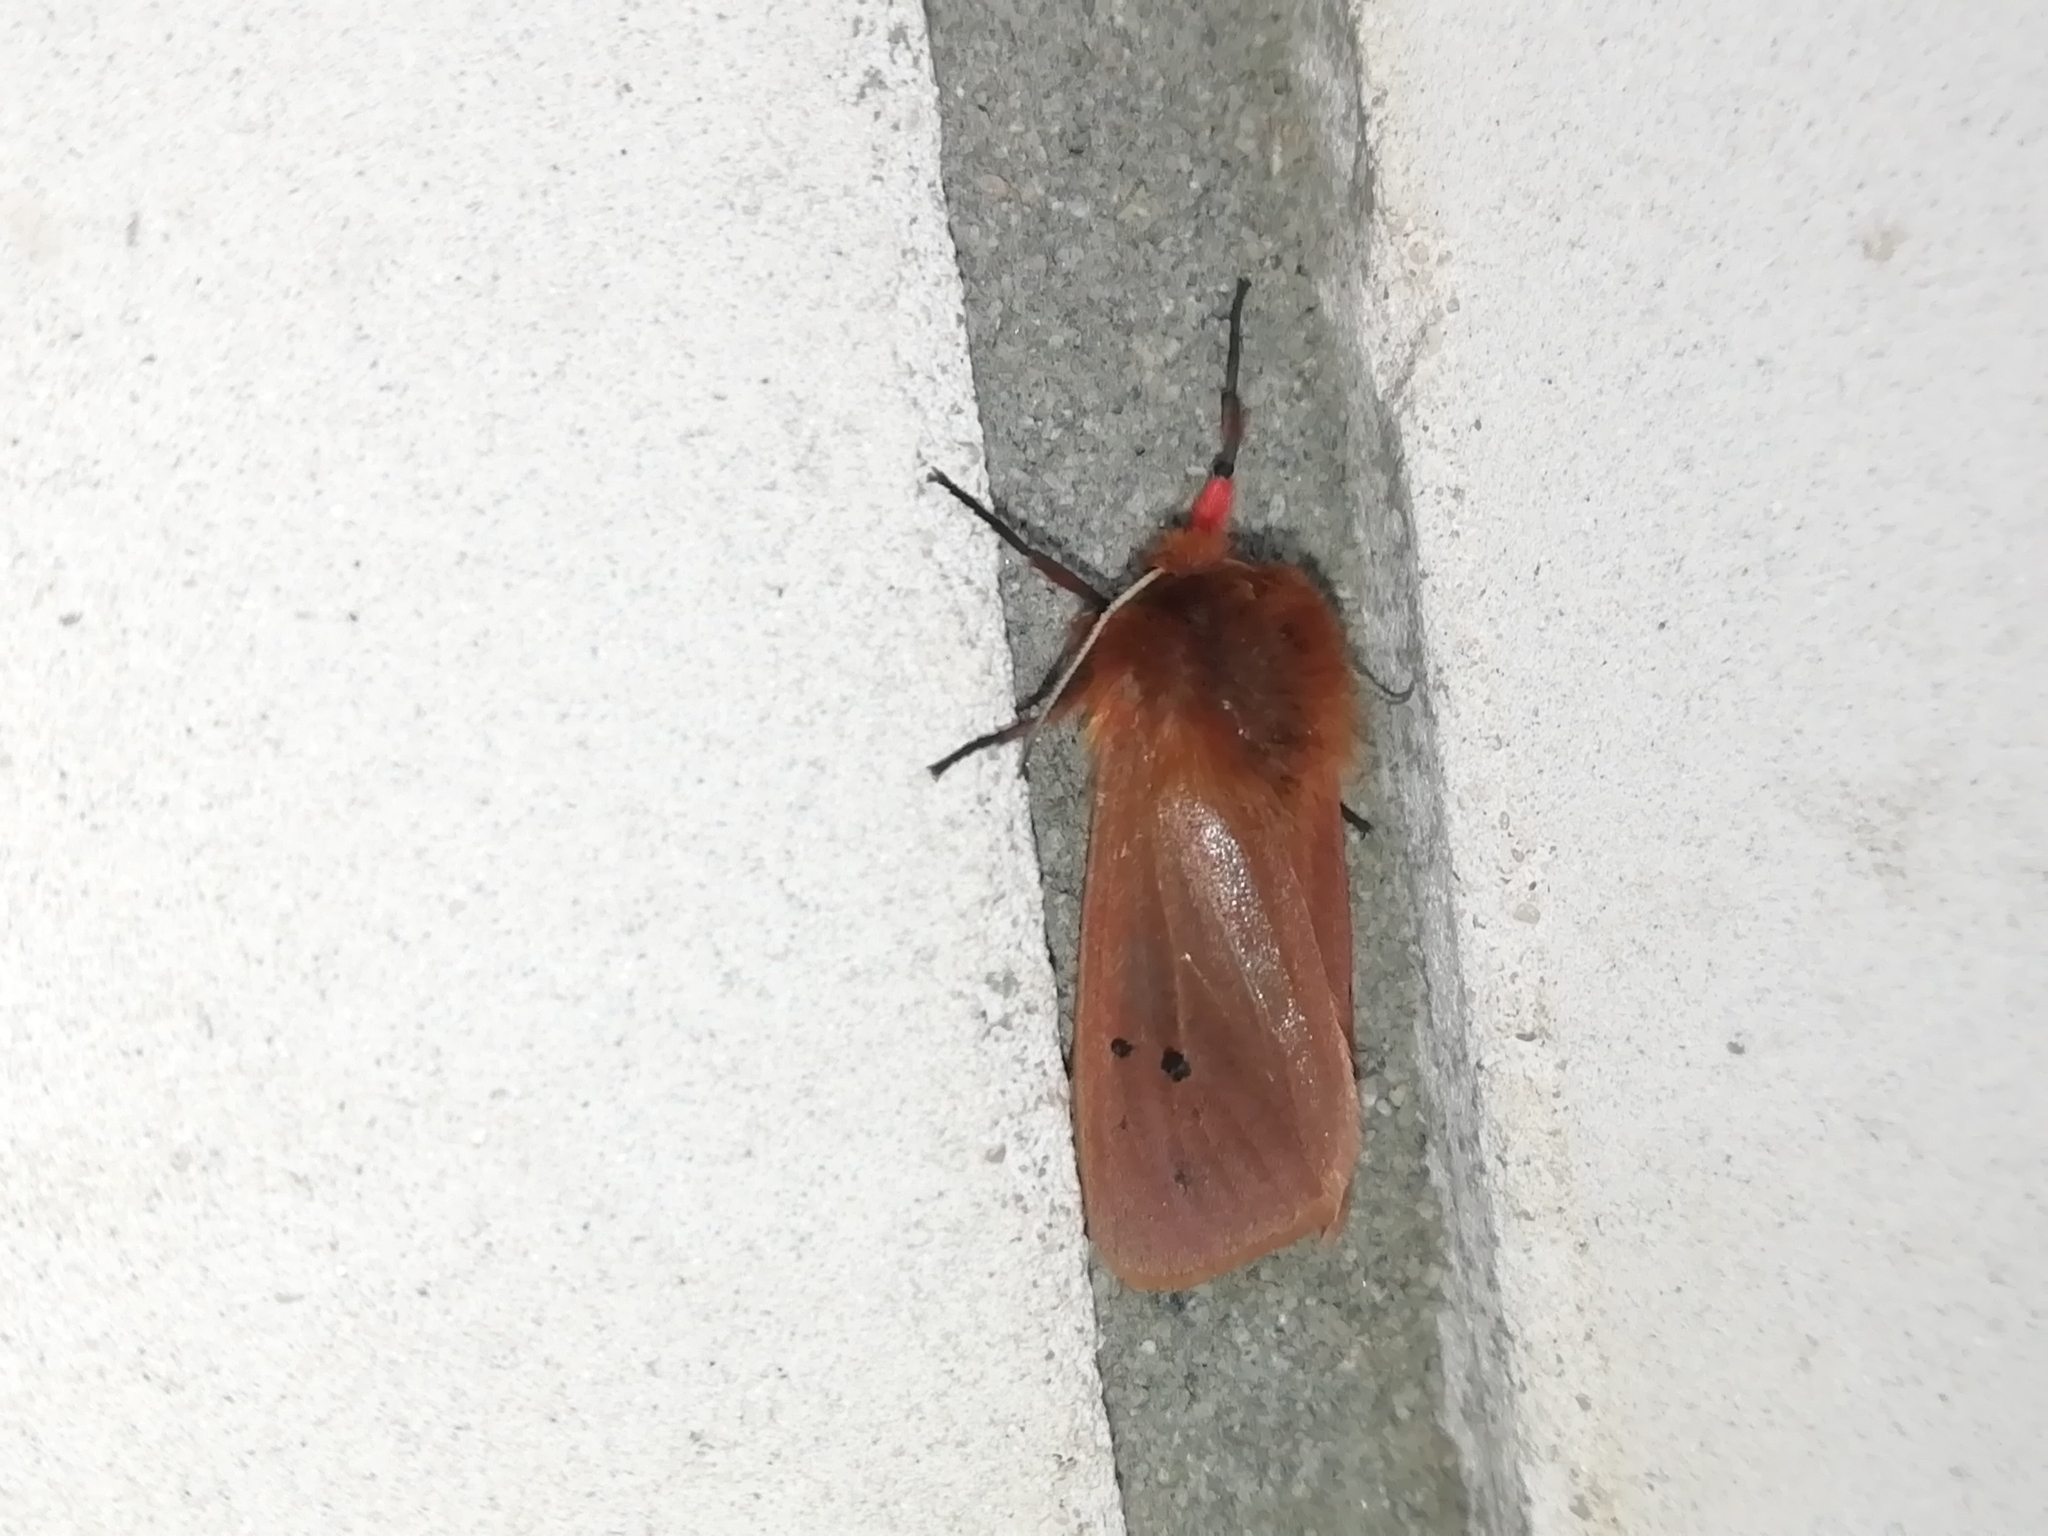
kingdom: Animalia
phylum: Arthropoda
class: Insecta
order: Lepidoptera
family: Erebidae
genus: Phragmatobia
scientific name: Phragmatobia fuliginosa
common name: Ruby tiger
